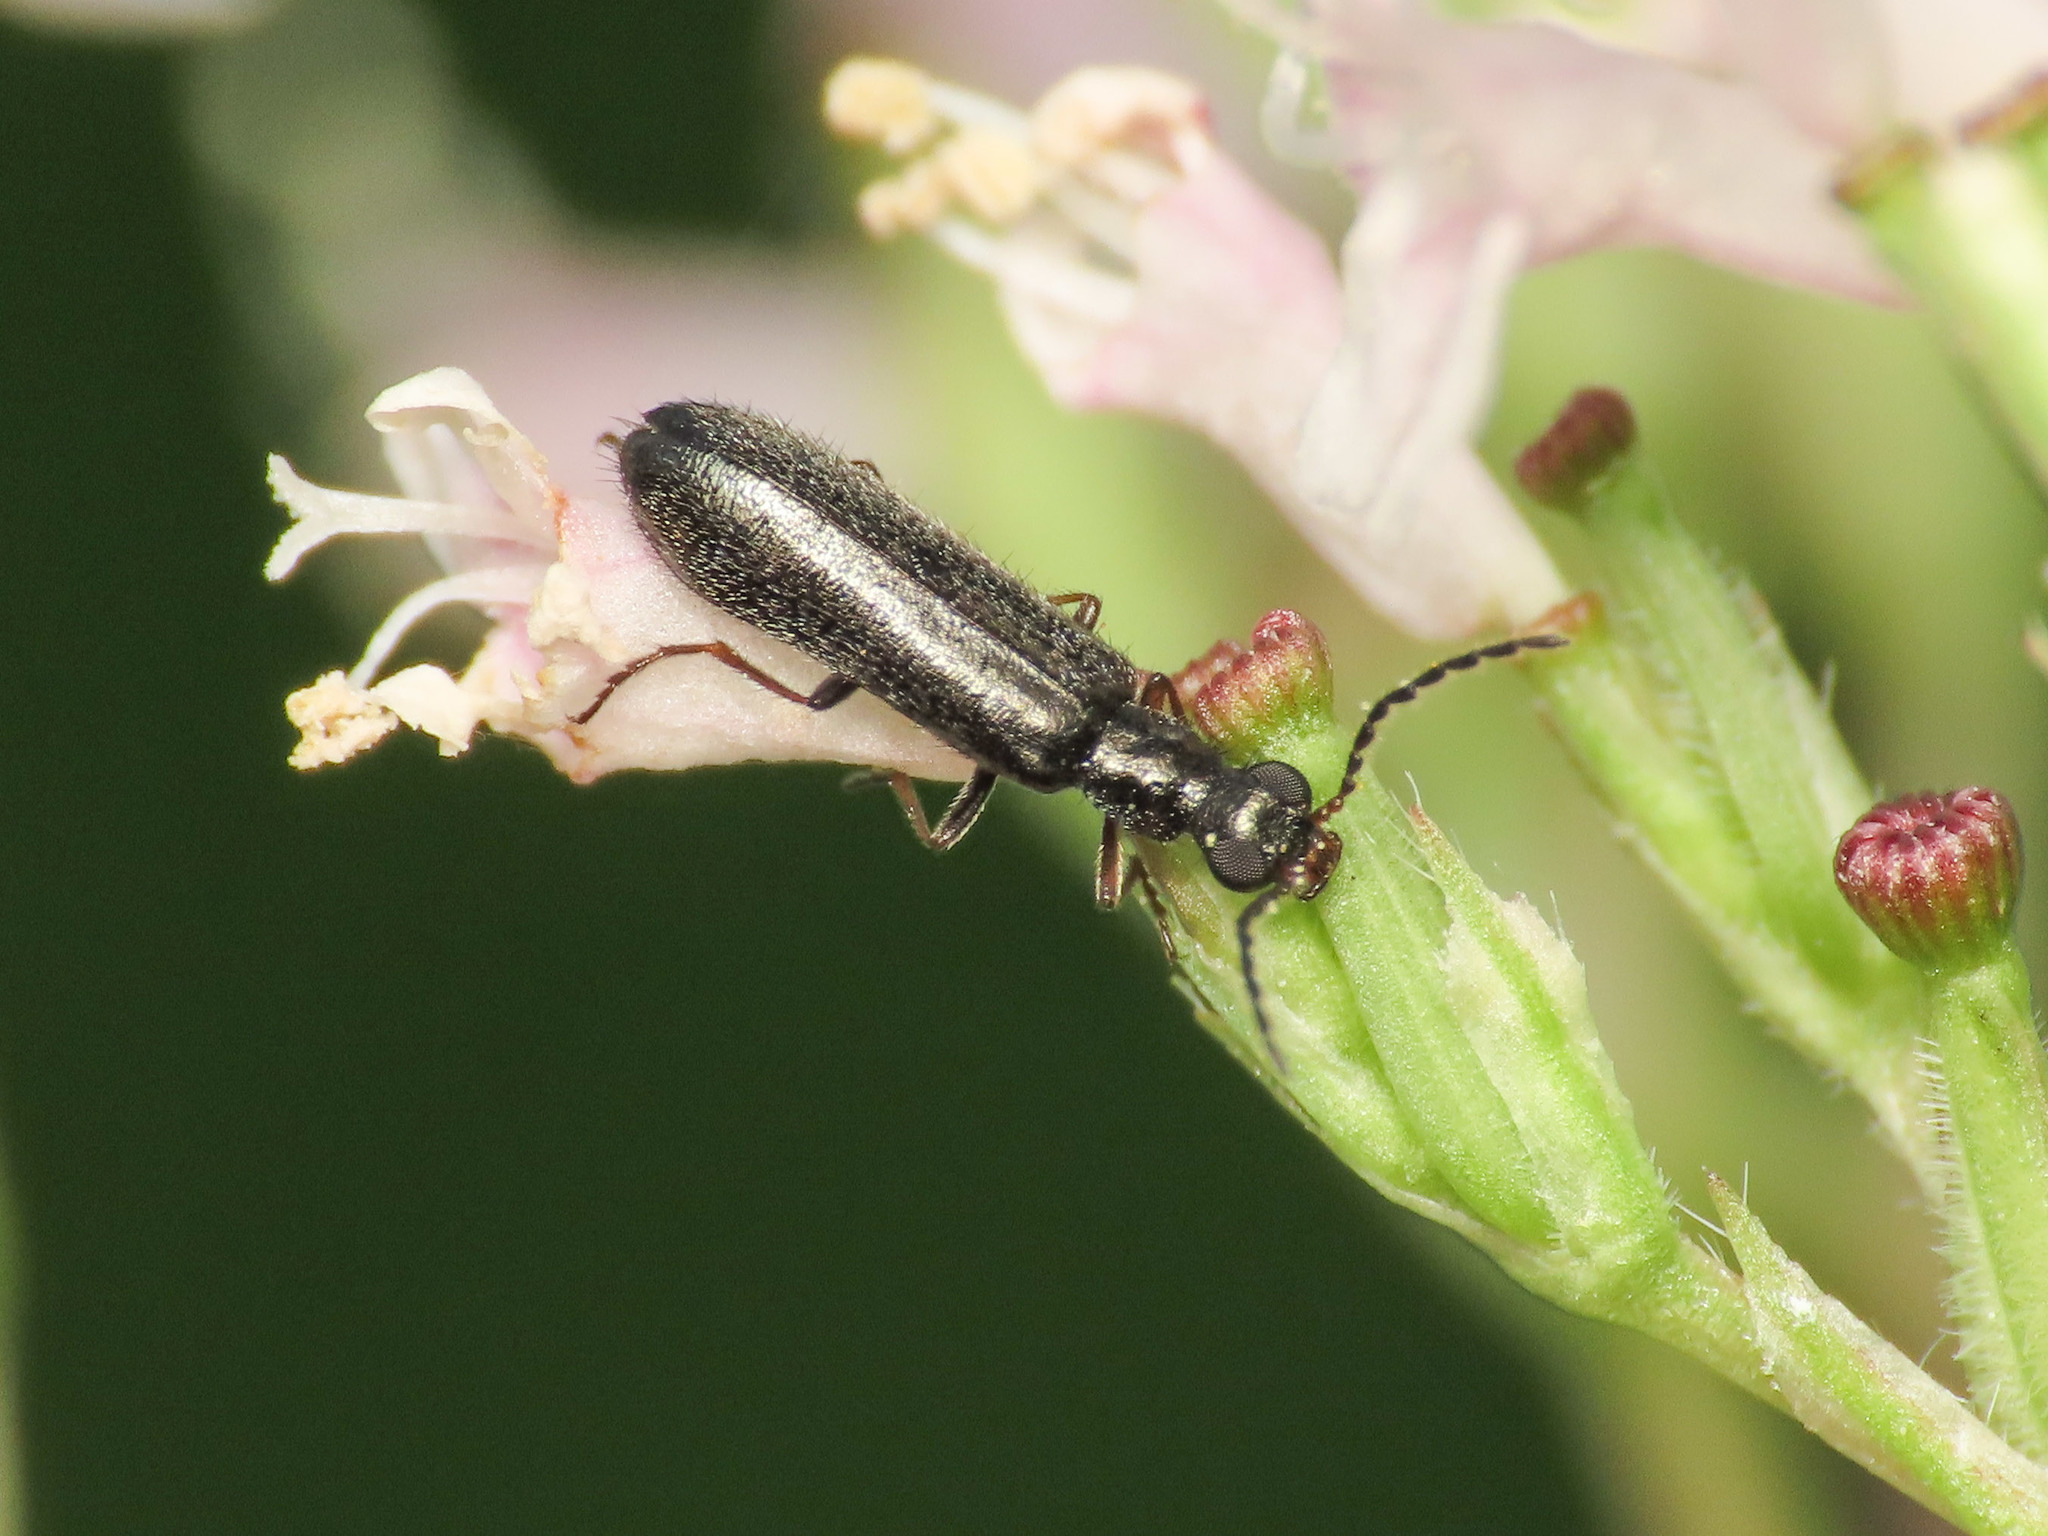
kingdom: Animalia
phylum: Arthropoda
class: Insecta
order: Coleoptera
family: Melyridae
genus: Dasytes
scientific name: Dasytes plumbeus
